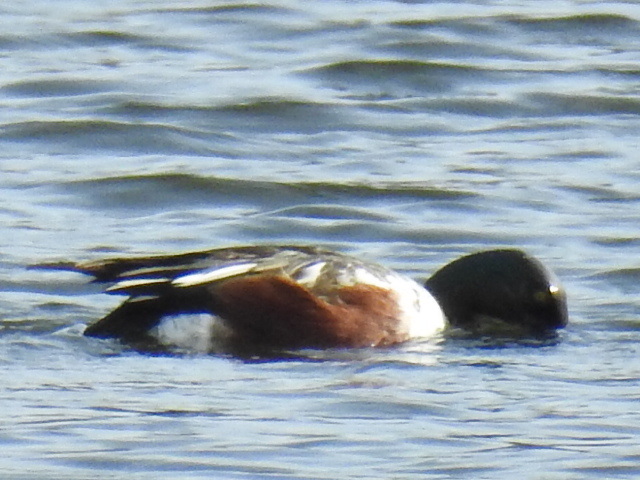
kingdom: Animalia
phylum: Chordata
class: Aves
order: Anseriformes
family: Anatidae
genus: Spatula
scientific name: Spatula clypeata
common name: Northern shoveler
